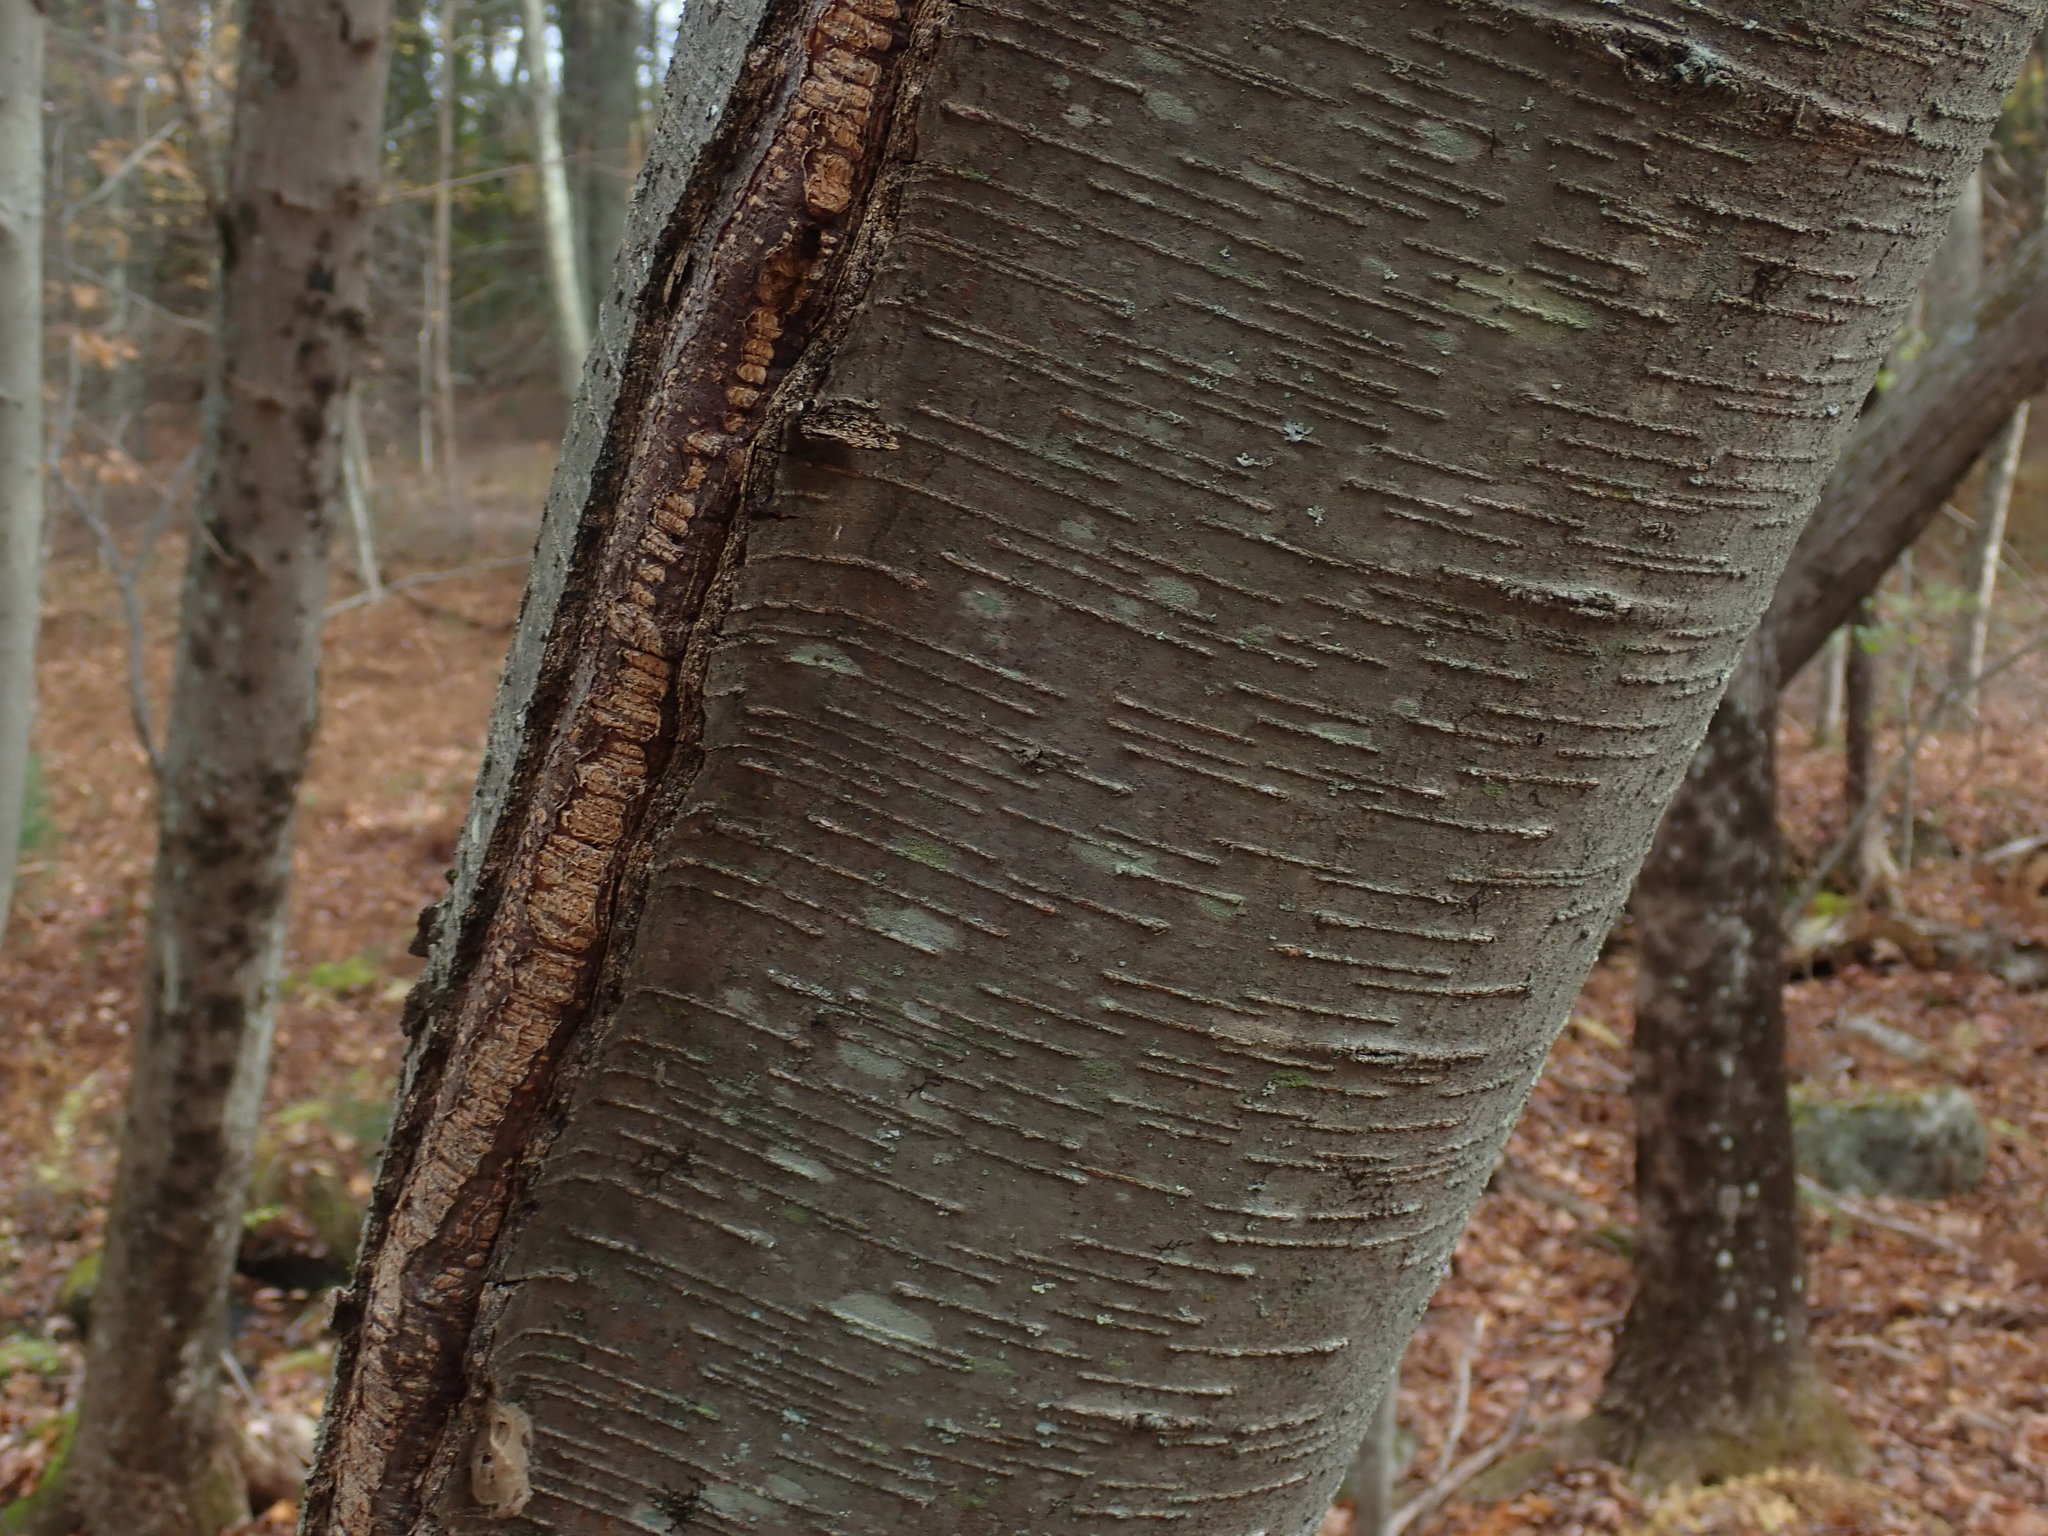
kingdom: Plantae
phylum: Tracheophyta
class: Magnoliopsida
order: Fagales
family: Betulaceae
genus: Betula
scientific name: Betula lenta
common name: Black birch
